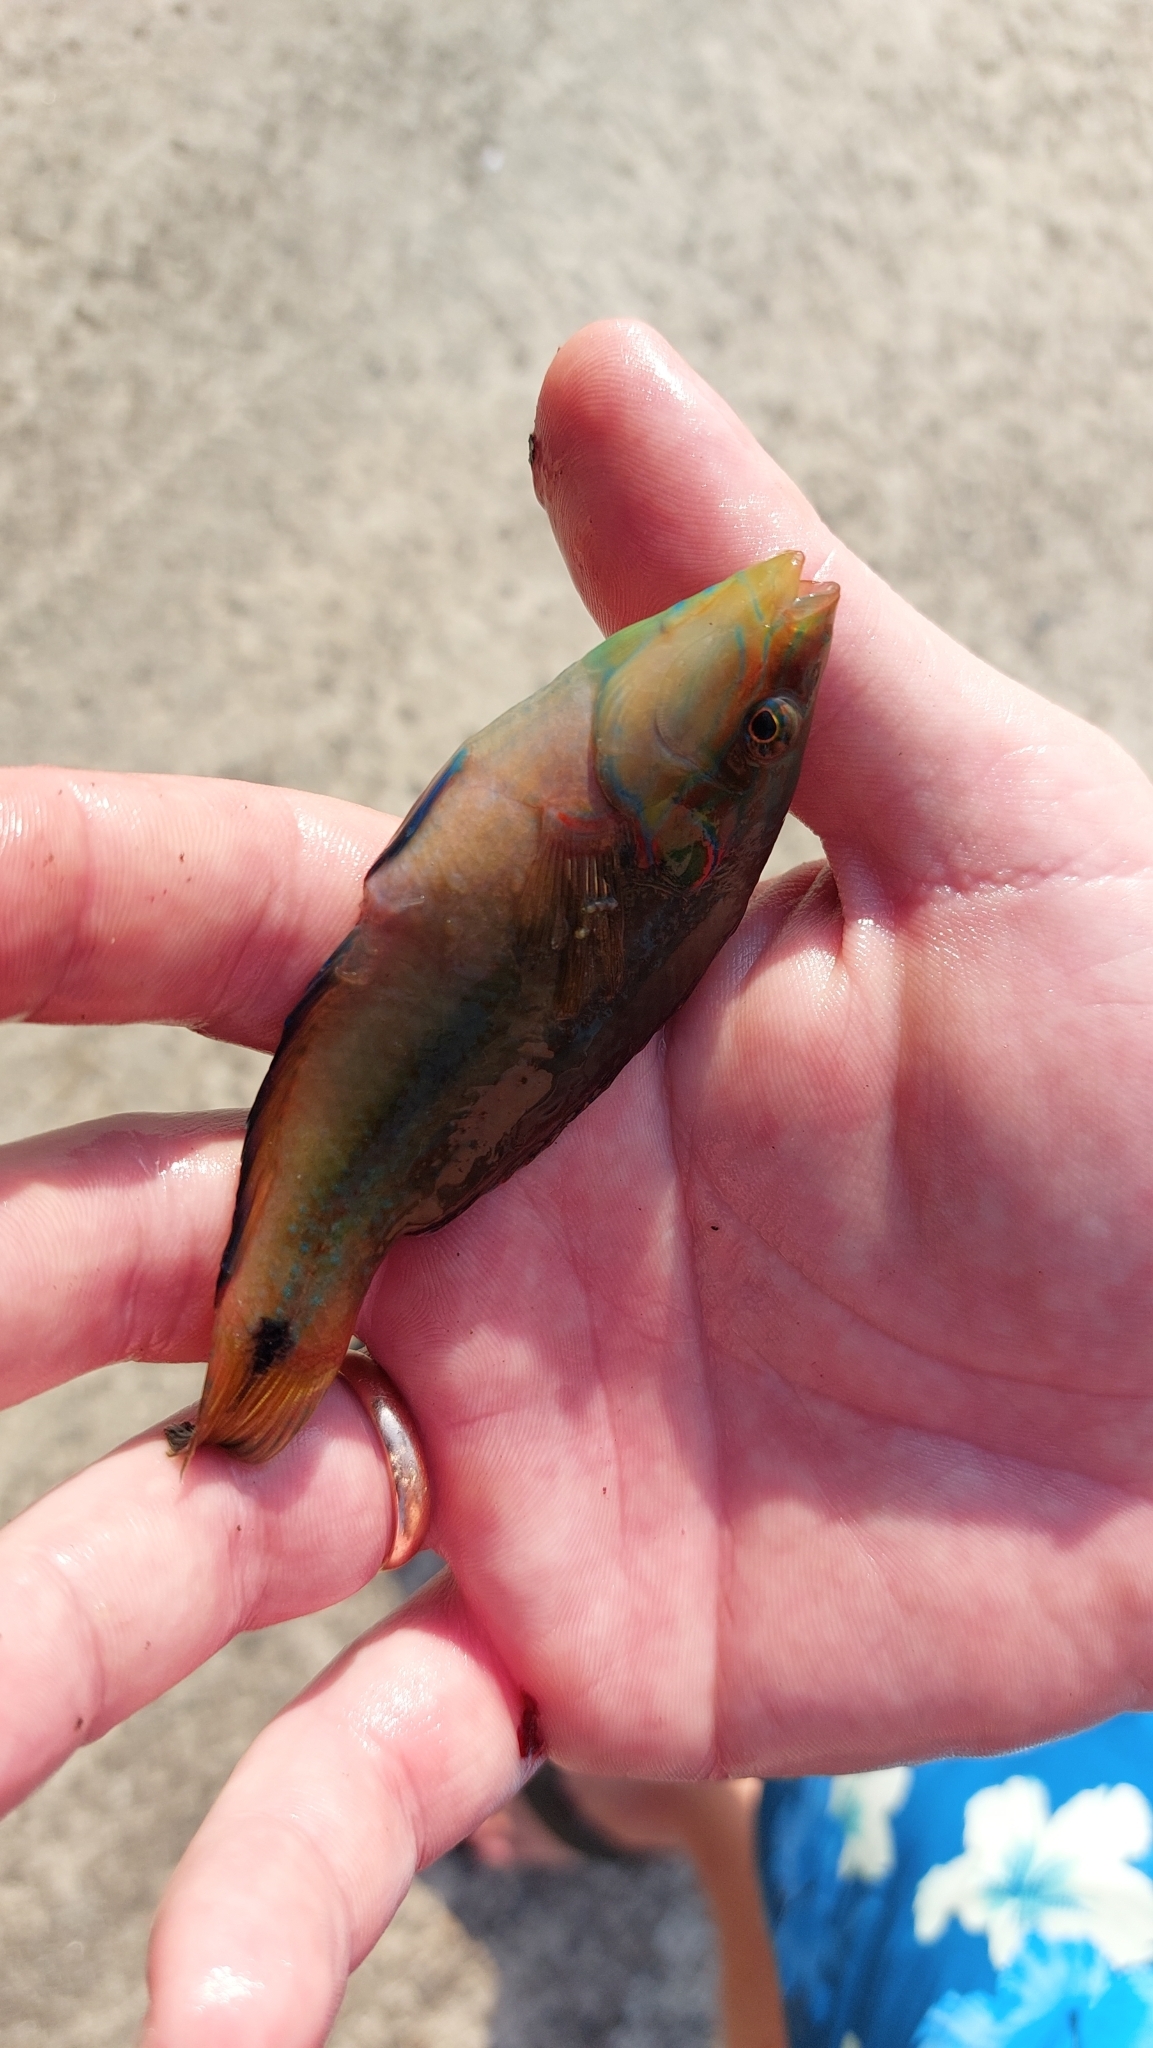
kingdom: Animalia
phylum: Chordata
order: Perciformes
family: Labridae
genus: Symphodus
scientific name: Symphodus ocellatus
